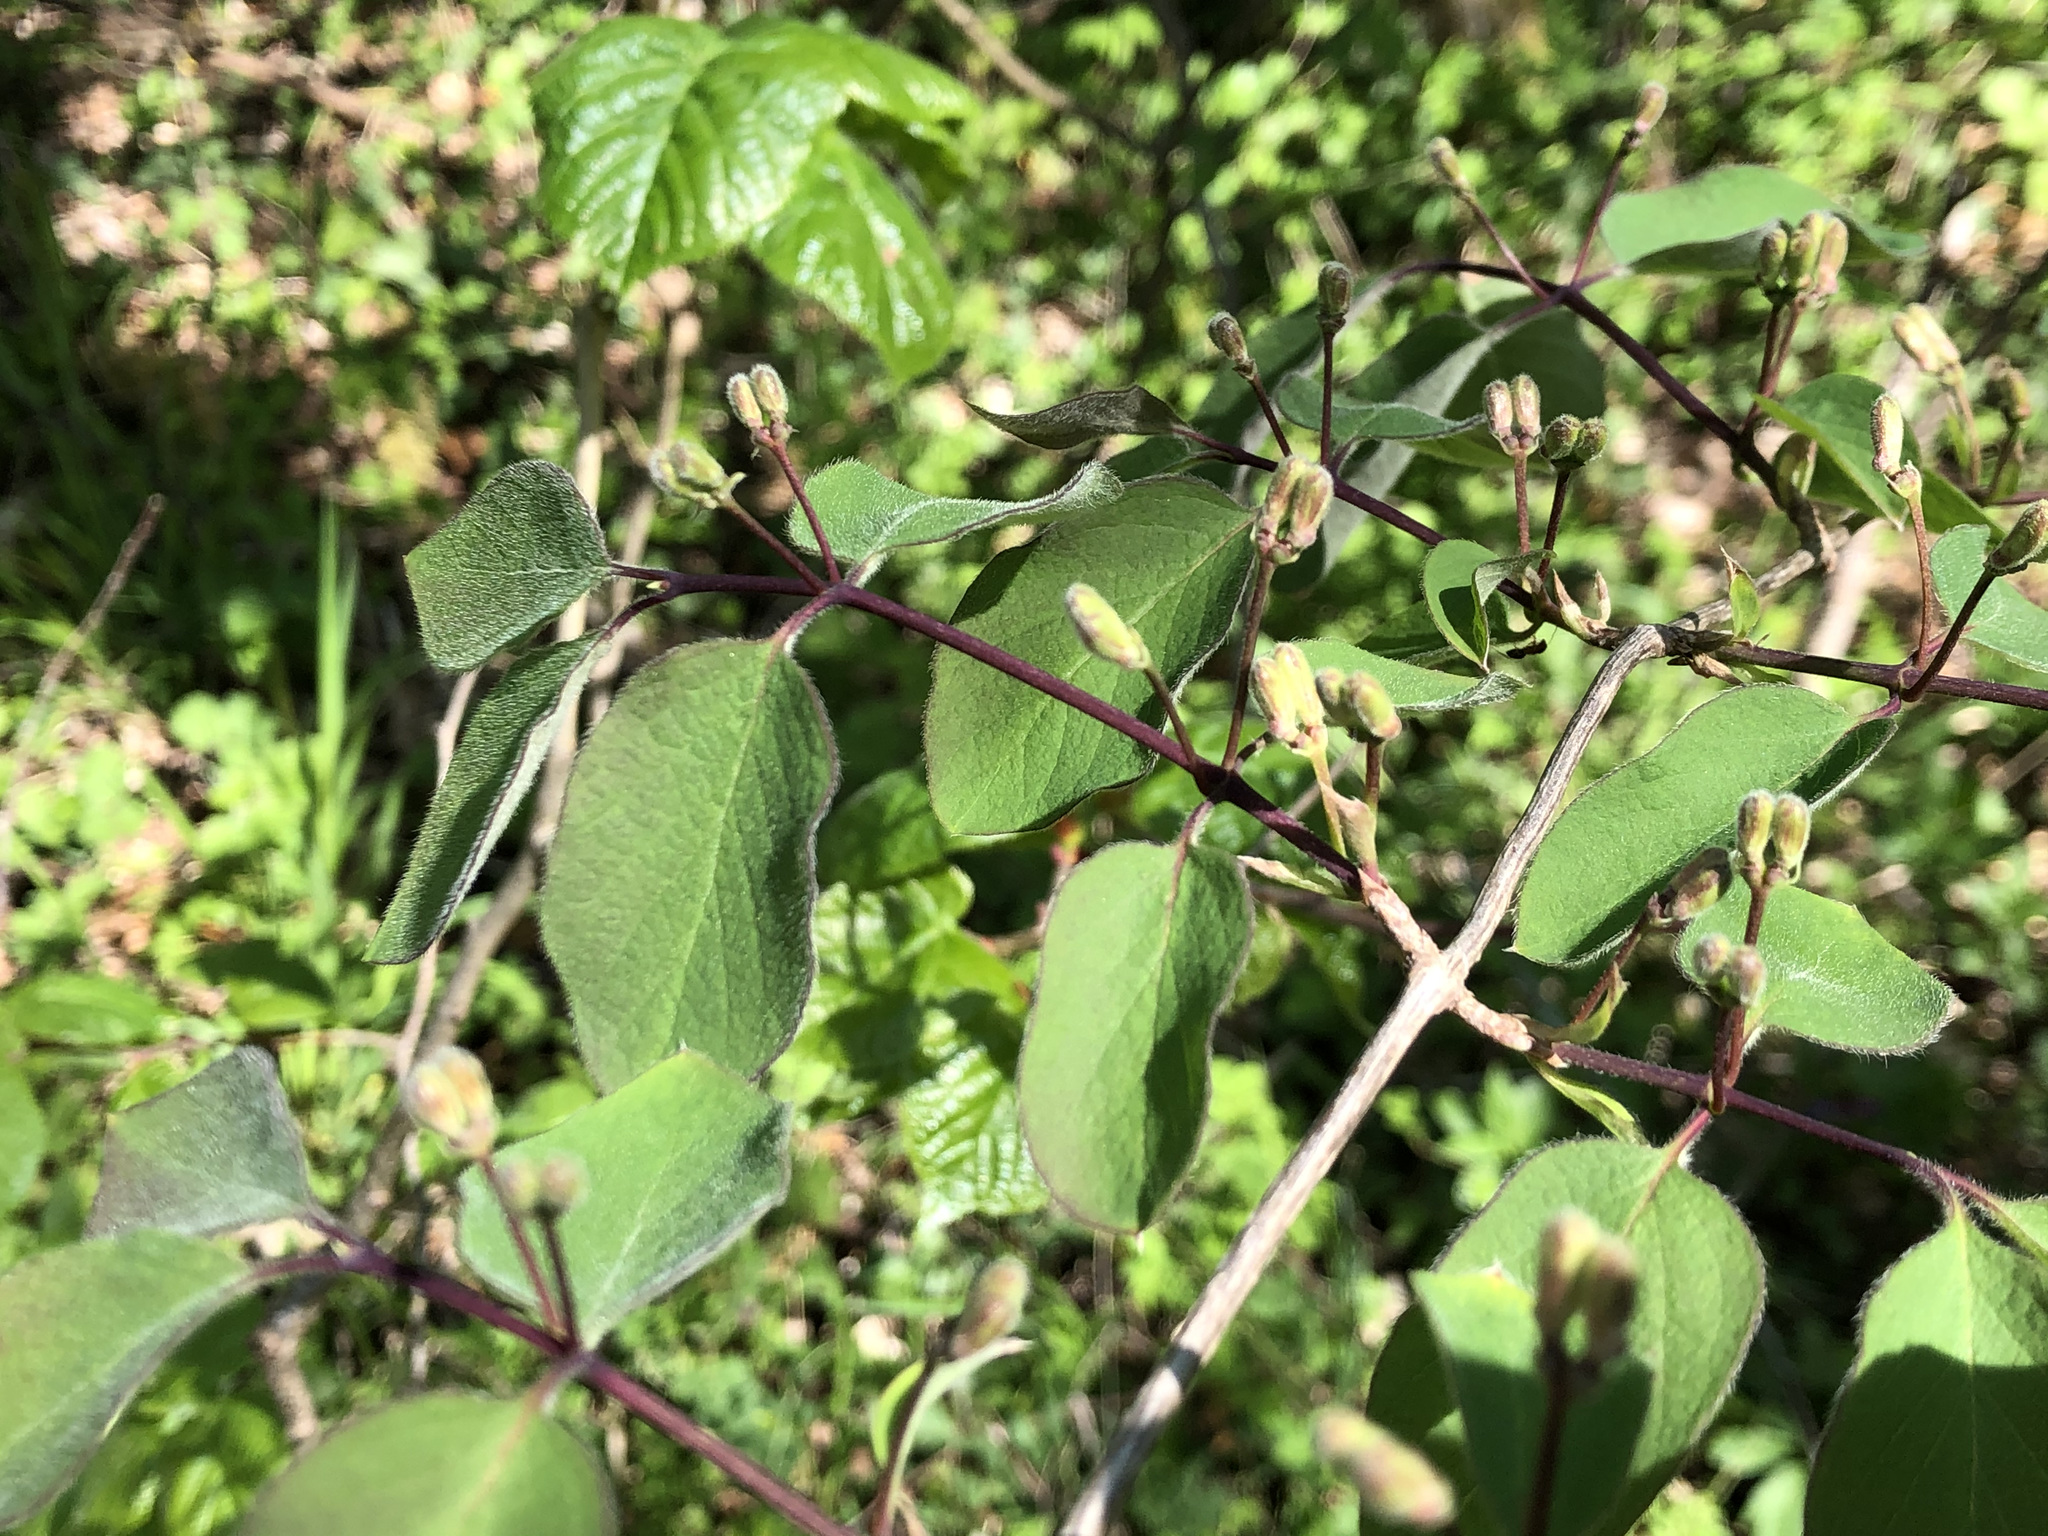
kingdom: Plantae
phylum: Tracheophyta
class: Magnoliopsida
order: Dipsacales
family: Caprifoliaceae
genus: Lonicera
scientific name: Lonicera xylosteum
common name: Fly honeysuckle
